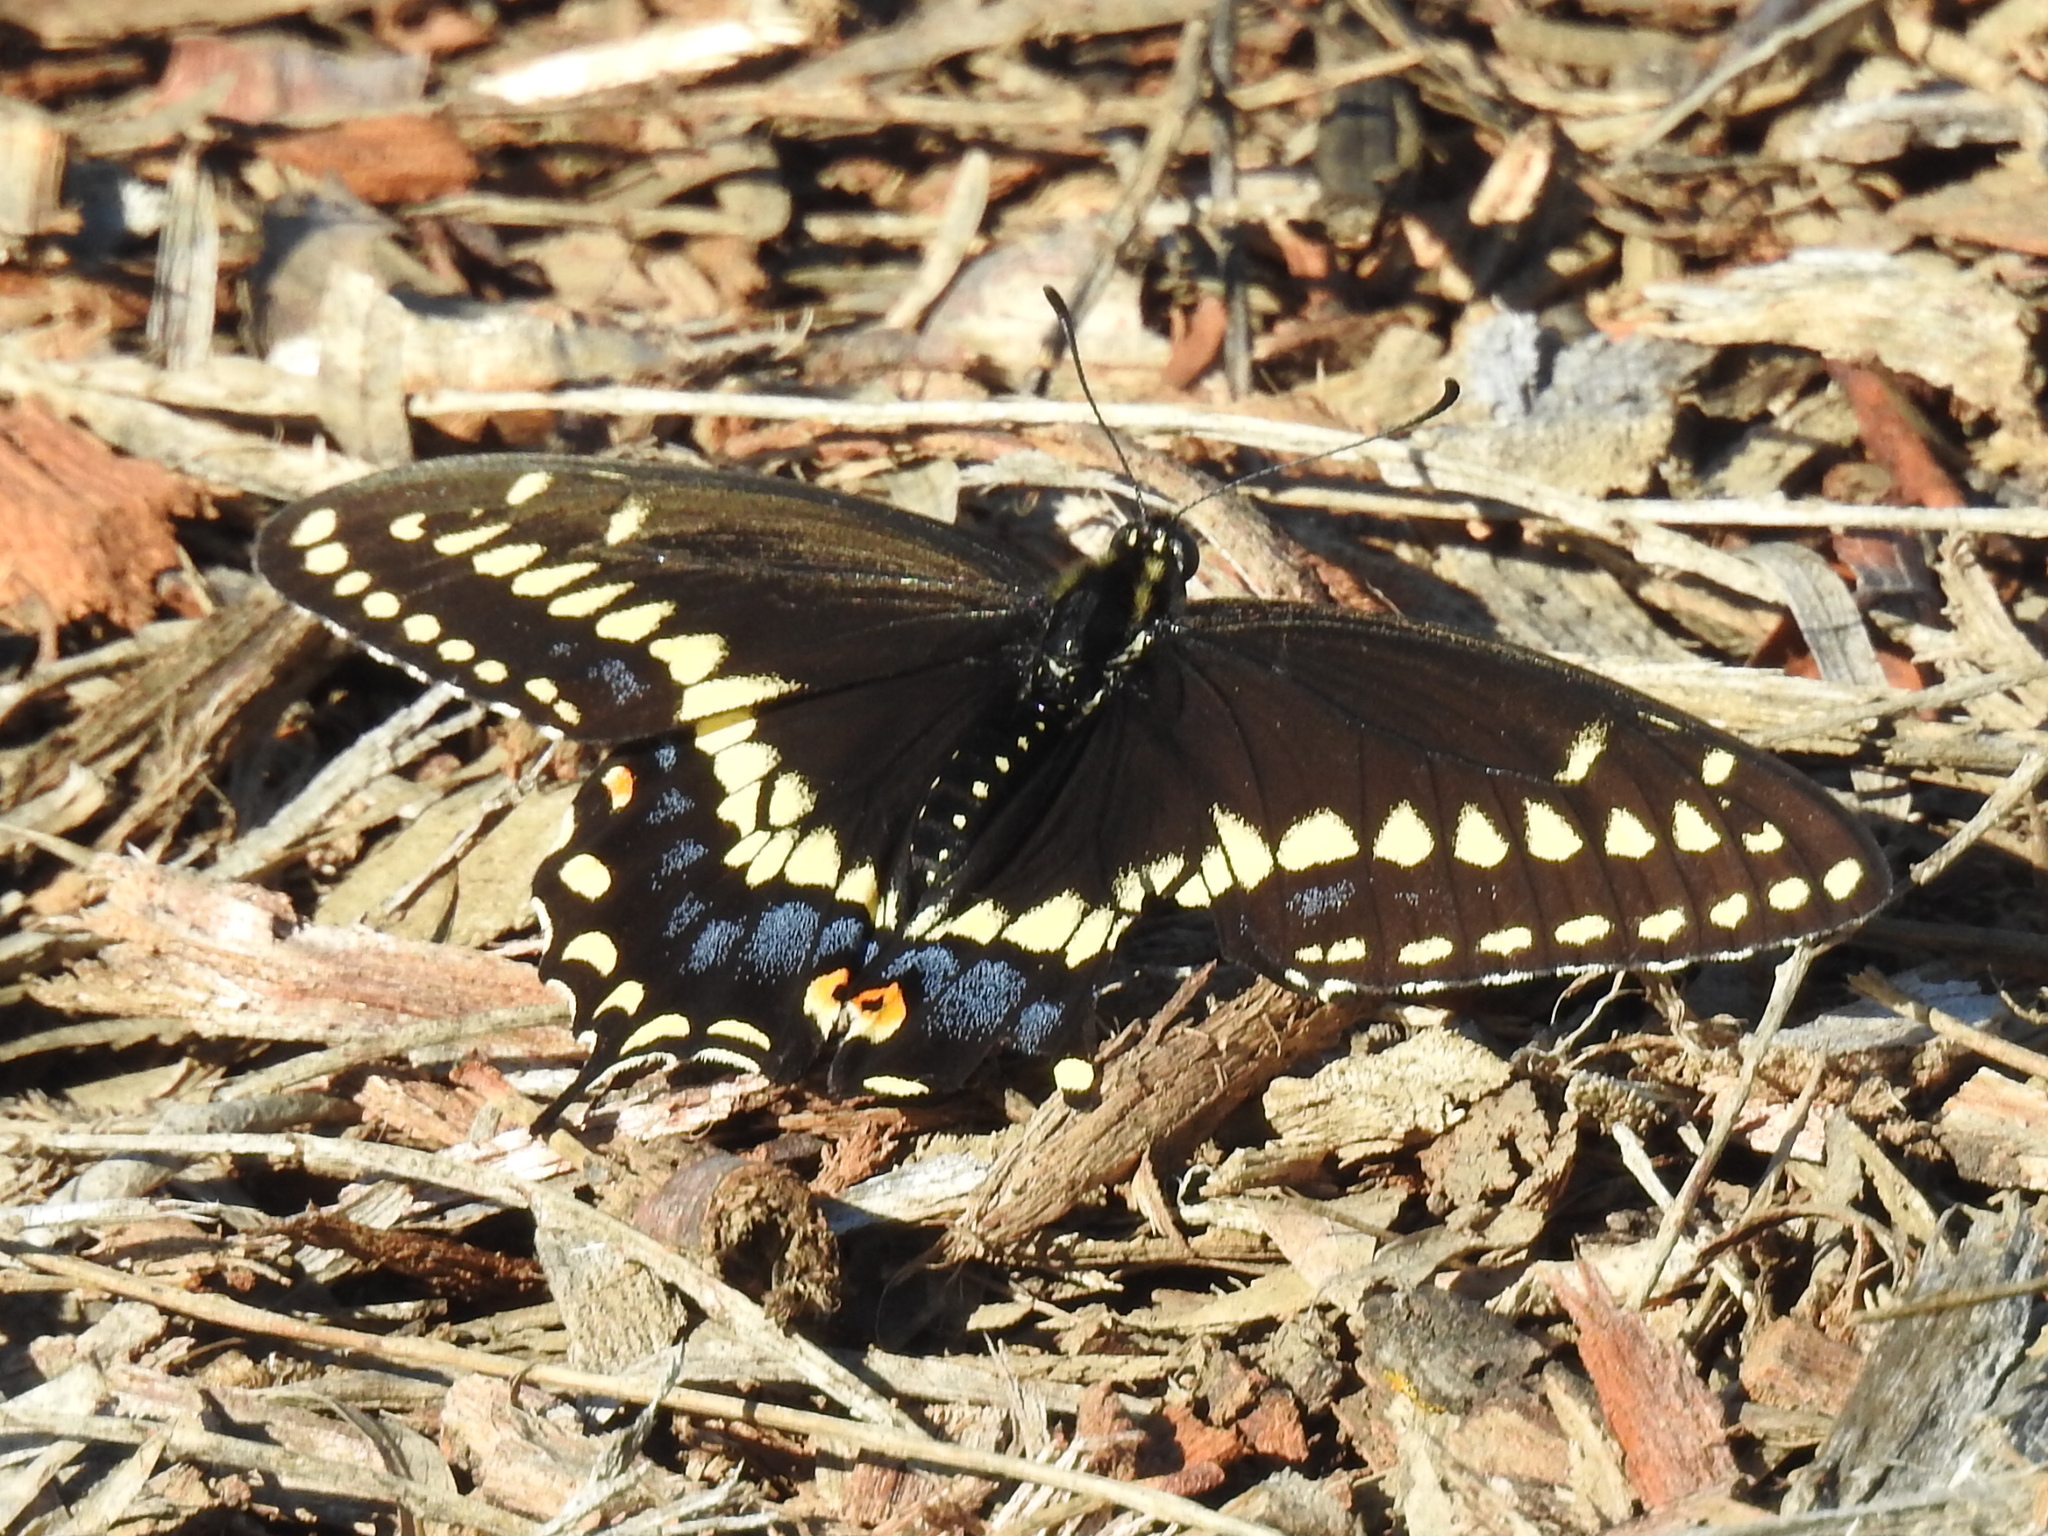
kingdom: Animalia
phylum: Arthropoda
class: Insecta
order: Lepidoptera
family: Papilionidae
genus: Papilio
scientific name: Papilio polyxenes
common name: Black swallowtail
